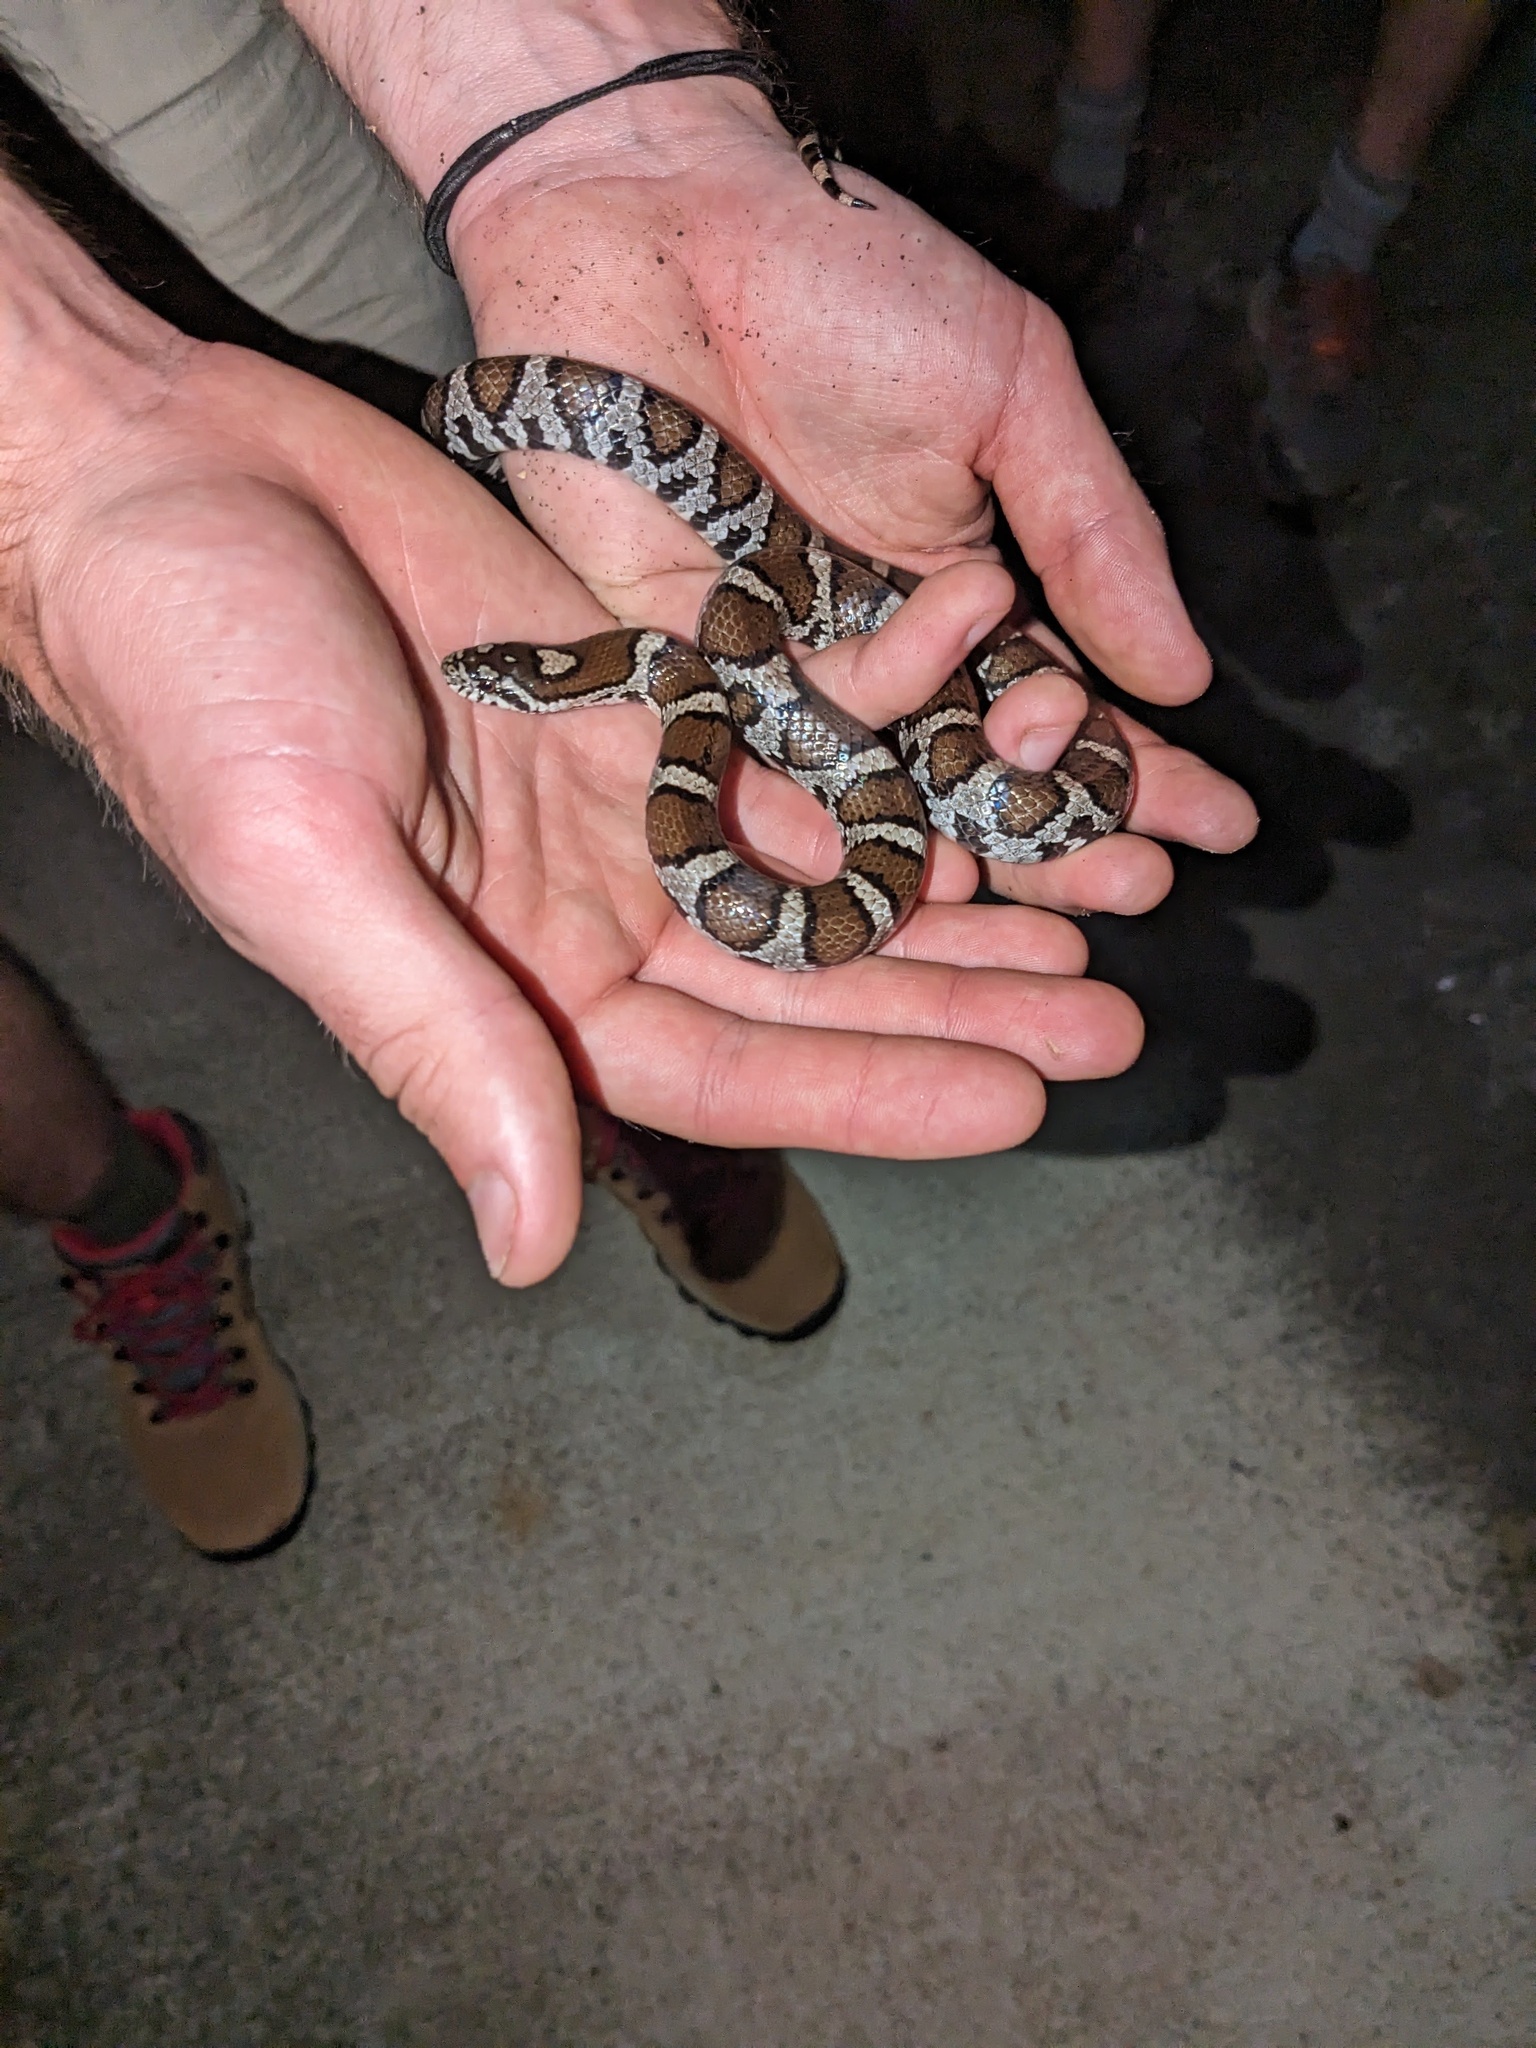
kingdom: Animalia
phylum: Chordata
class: Squamata
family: Colubridae
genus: Lampropeltis
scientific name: Lampropeltis triangulum
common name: Eastern milksnake
